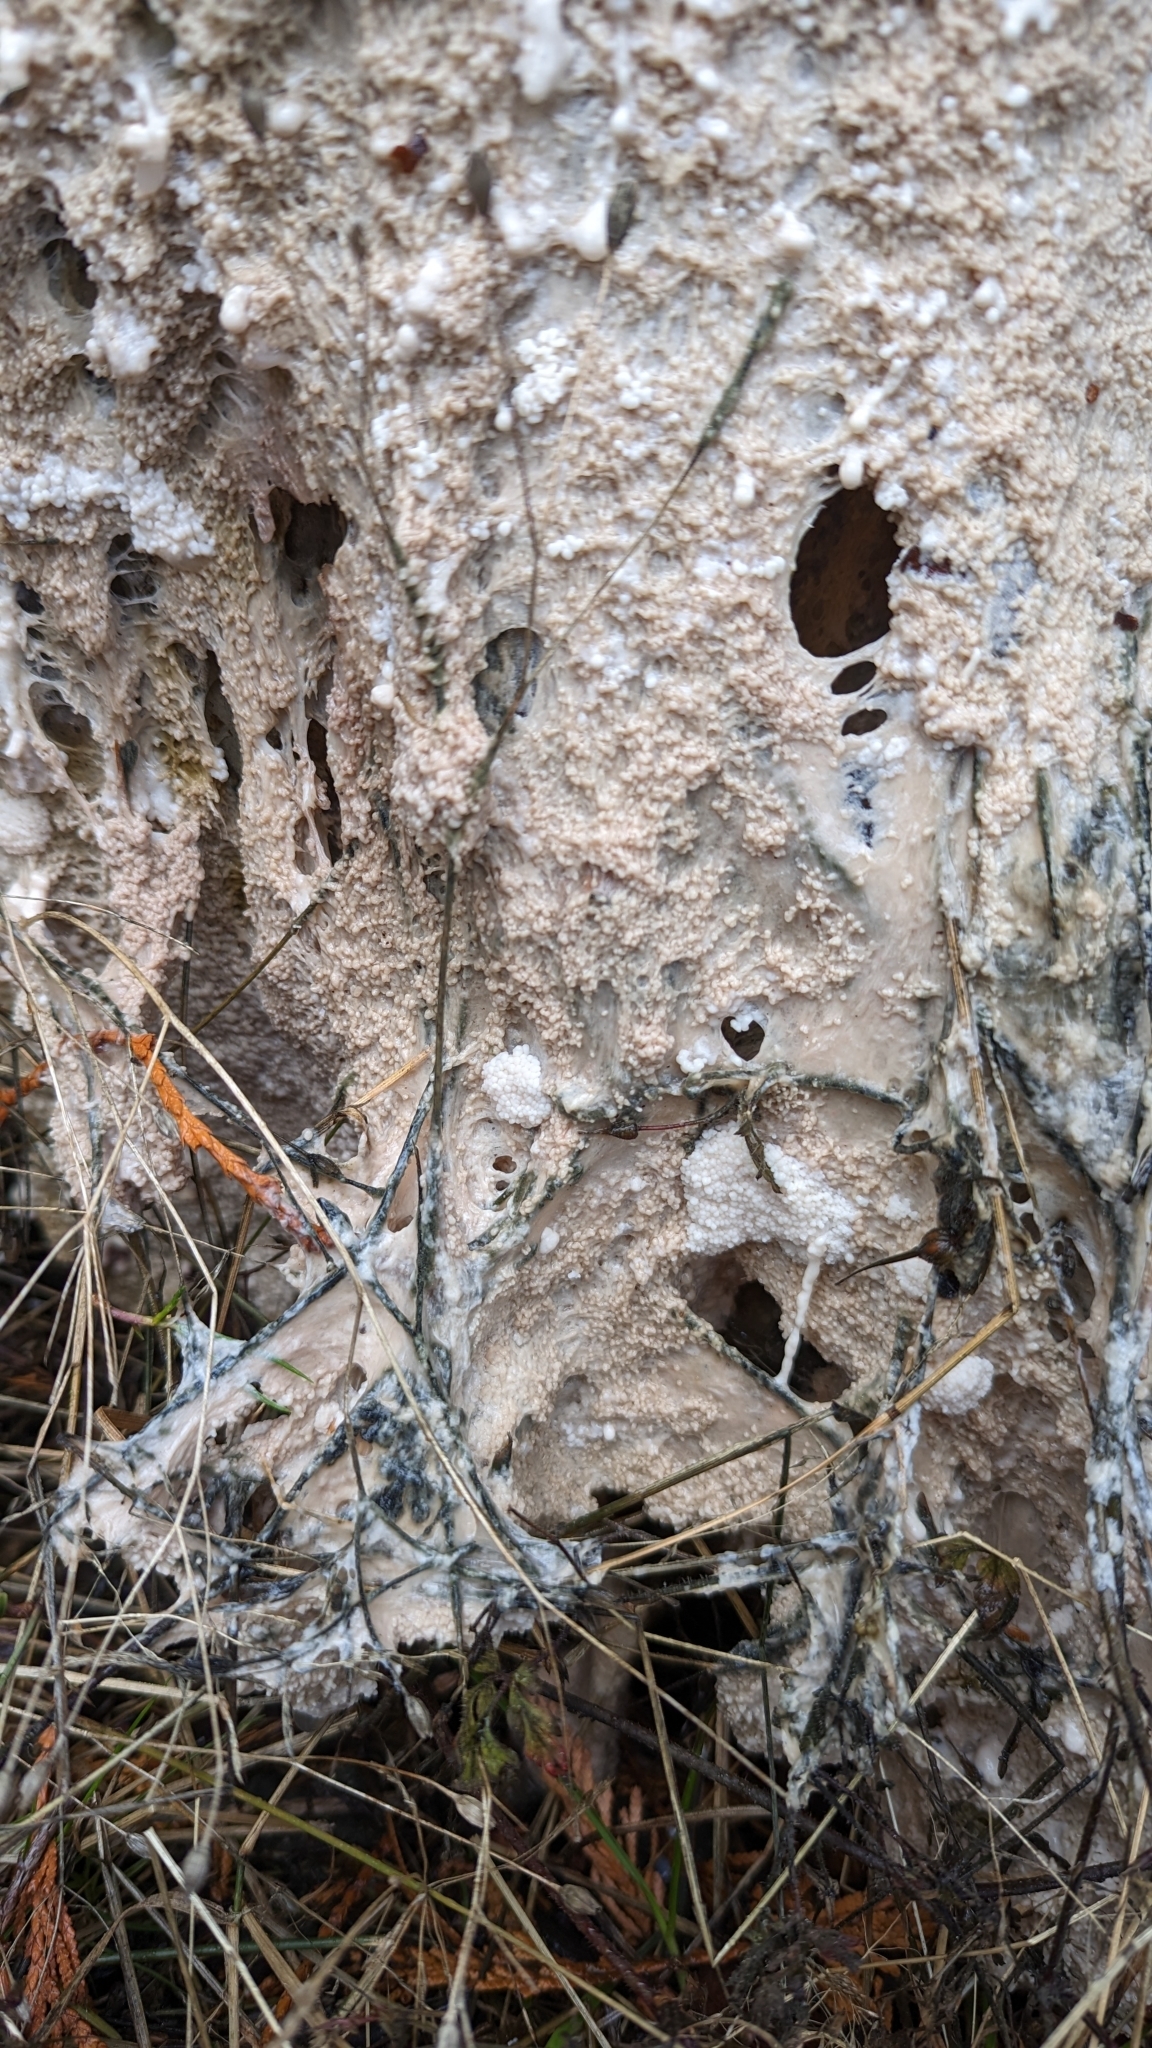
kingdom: Protozoa
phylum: Mycetozoa
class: Myxomycetes
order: Stemonitidales
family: Stemonitidaceae
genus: Brefeldia
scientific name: Brefeldia maxima
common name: Tapioca slime mold
